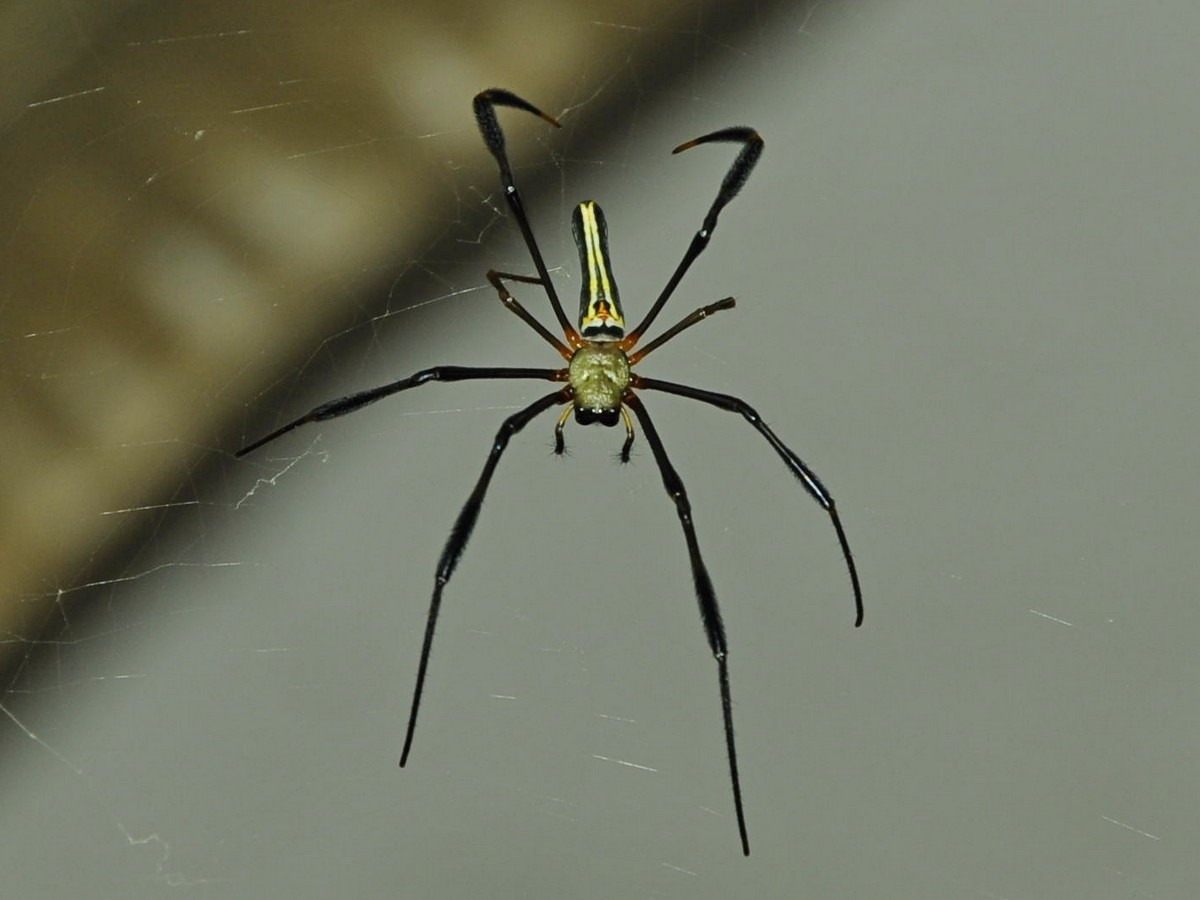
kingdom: Animalia
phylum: Arthropoda
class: Arachnida
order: Araneae
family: Araneidae
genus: Nephila
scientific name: Nephila pilipes
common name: Giant golden orb weaver
